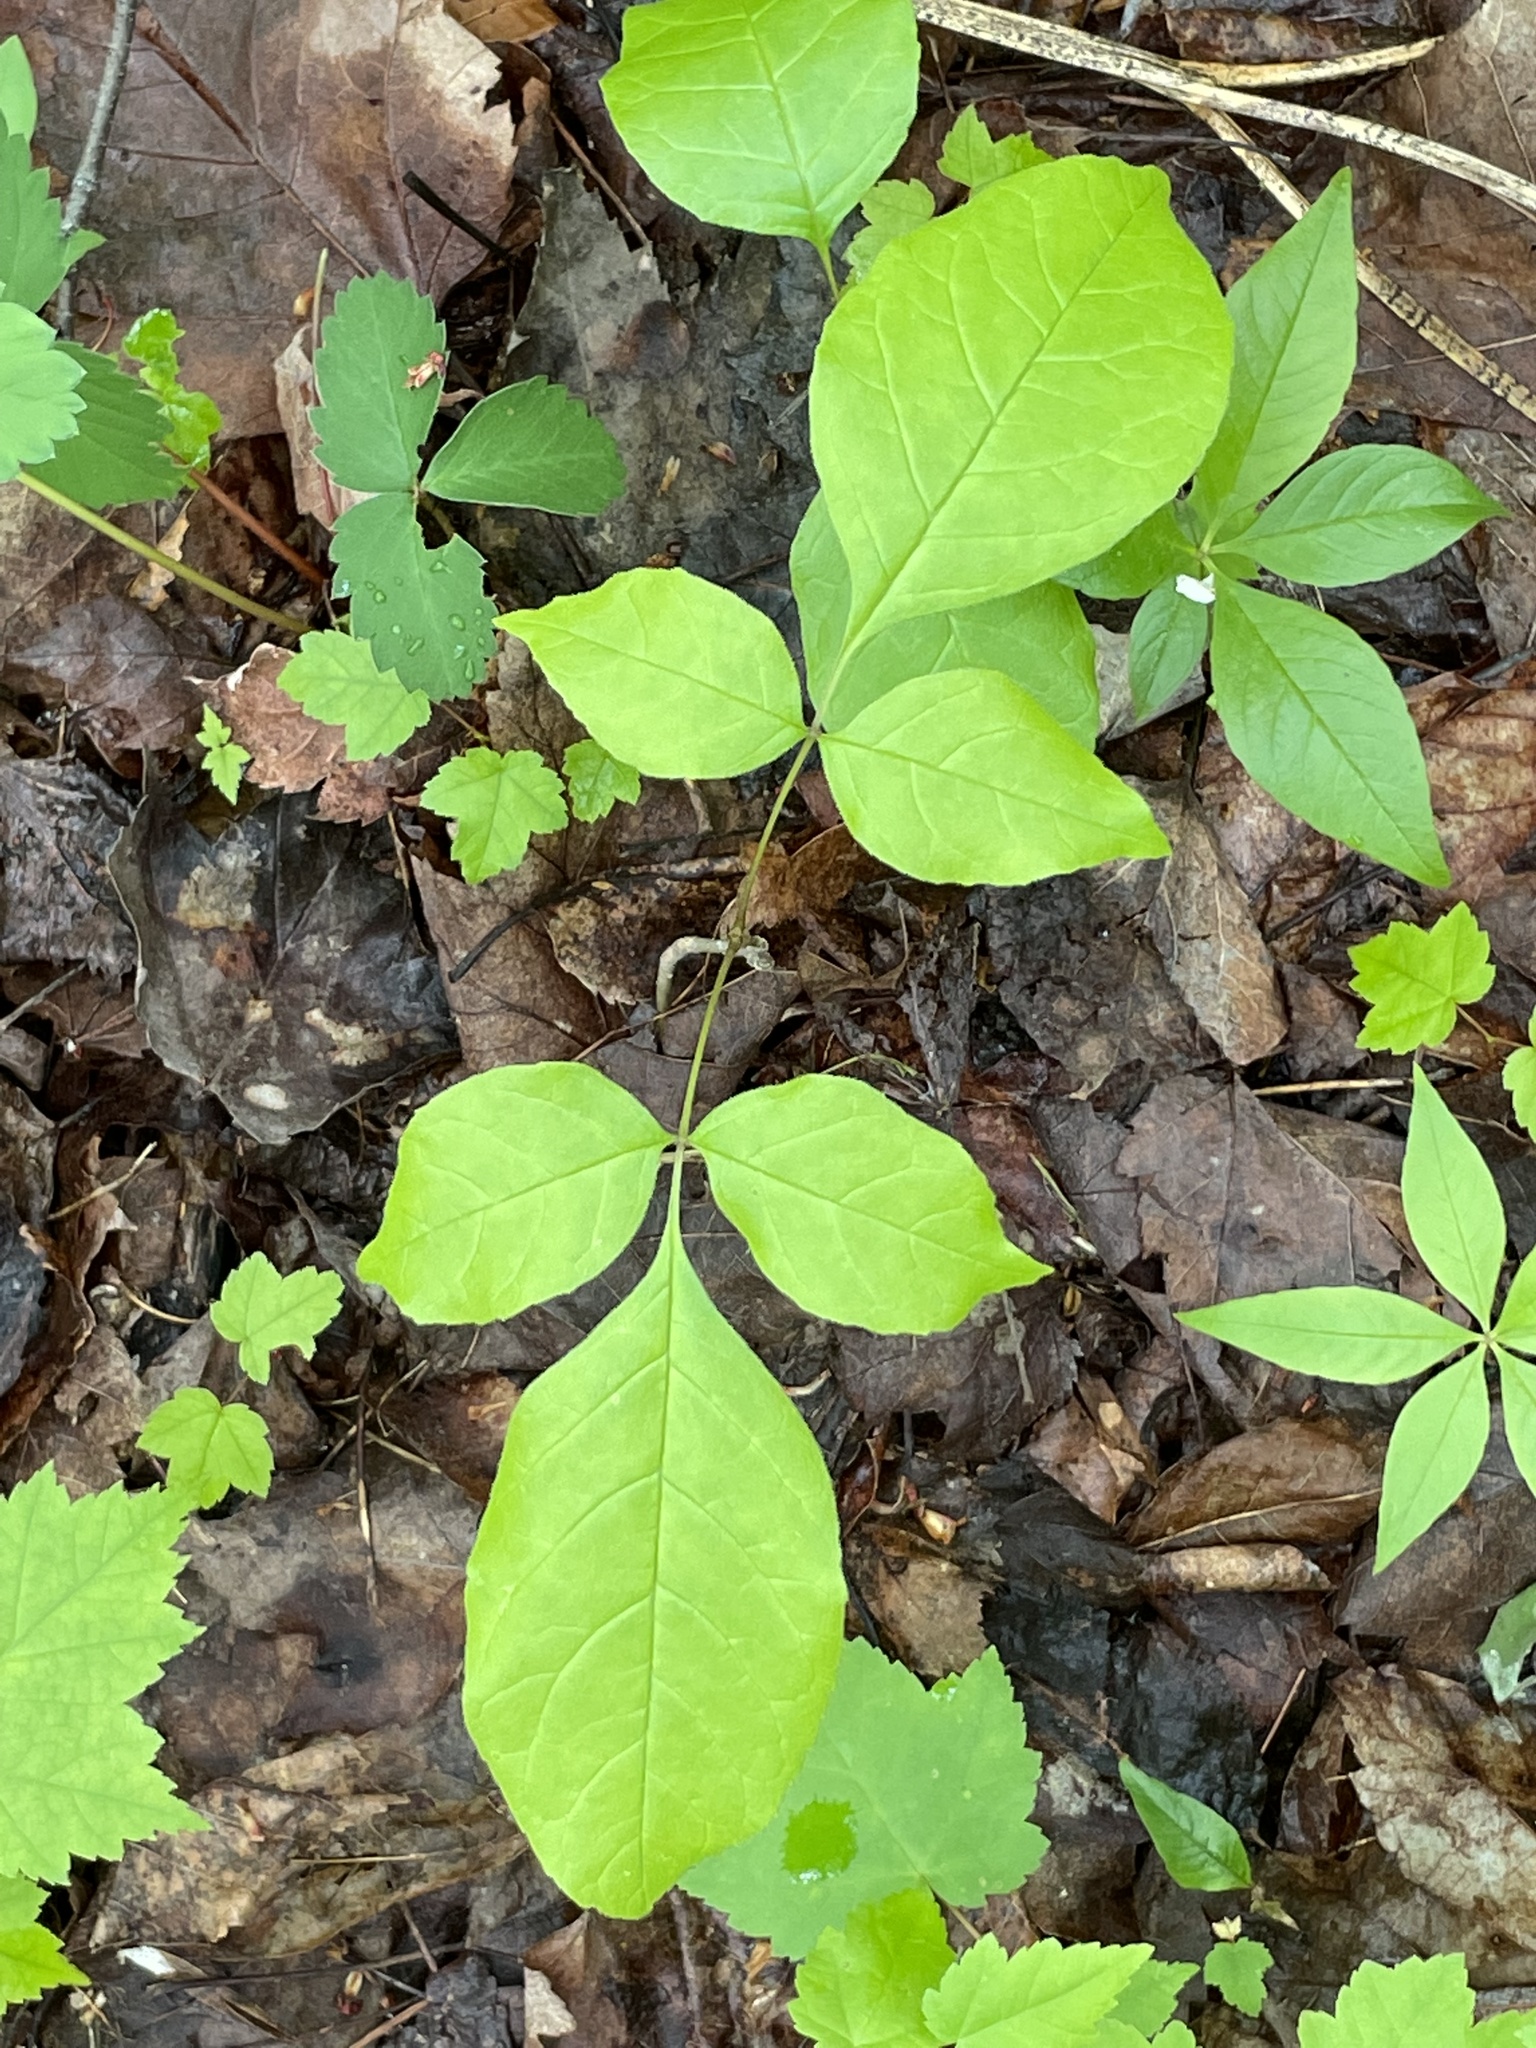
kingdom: Plantae
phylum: Tracheophyta
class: Magnoliopsida
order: Lamiales
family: Oleaceae
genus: Fraxinus
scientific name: Fraxinus americana
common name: White ash
